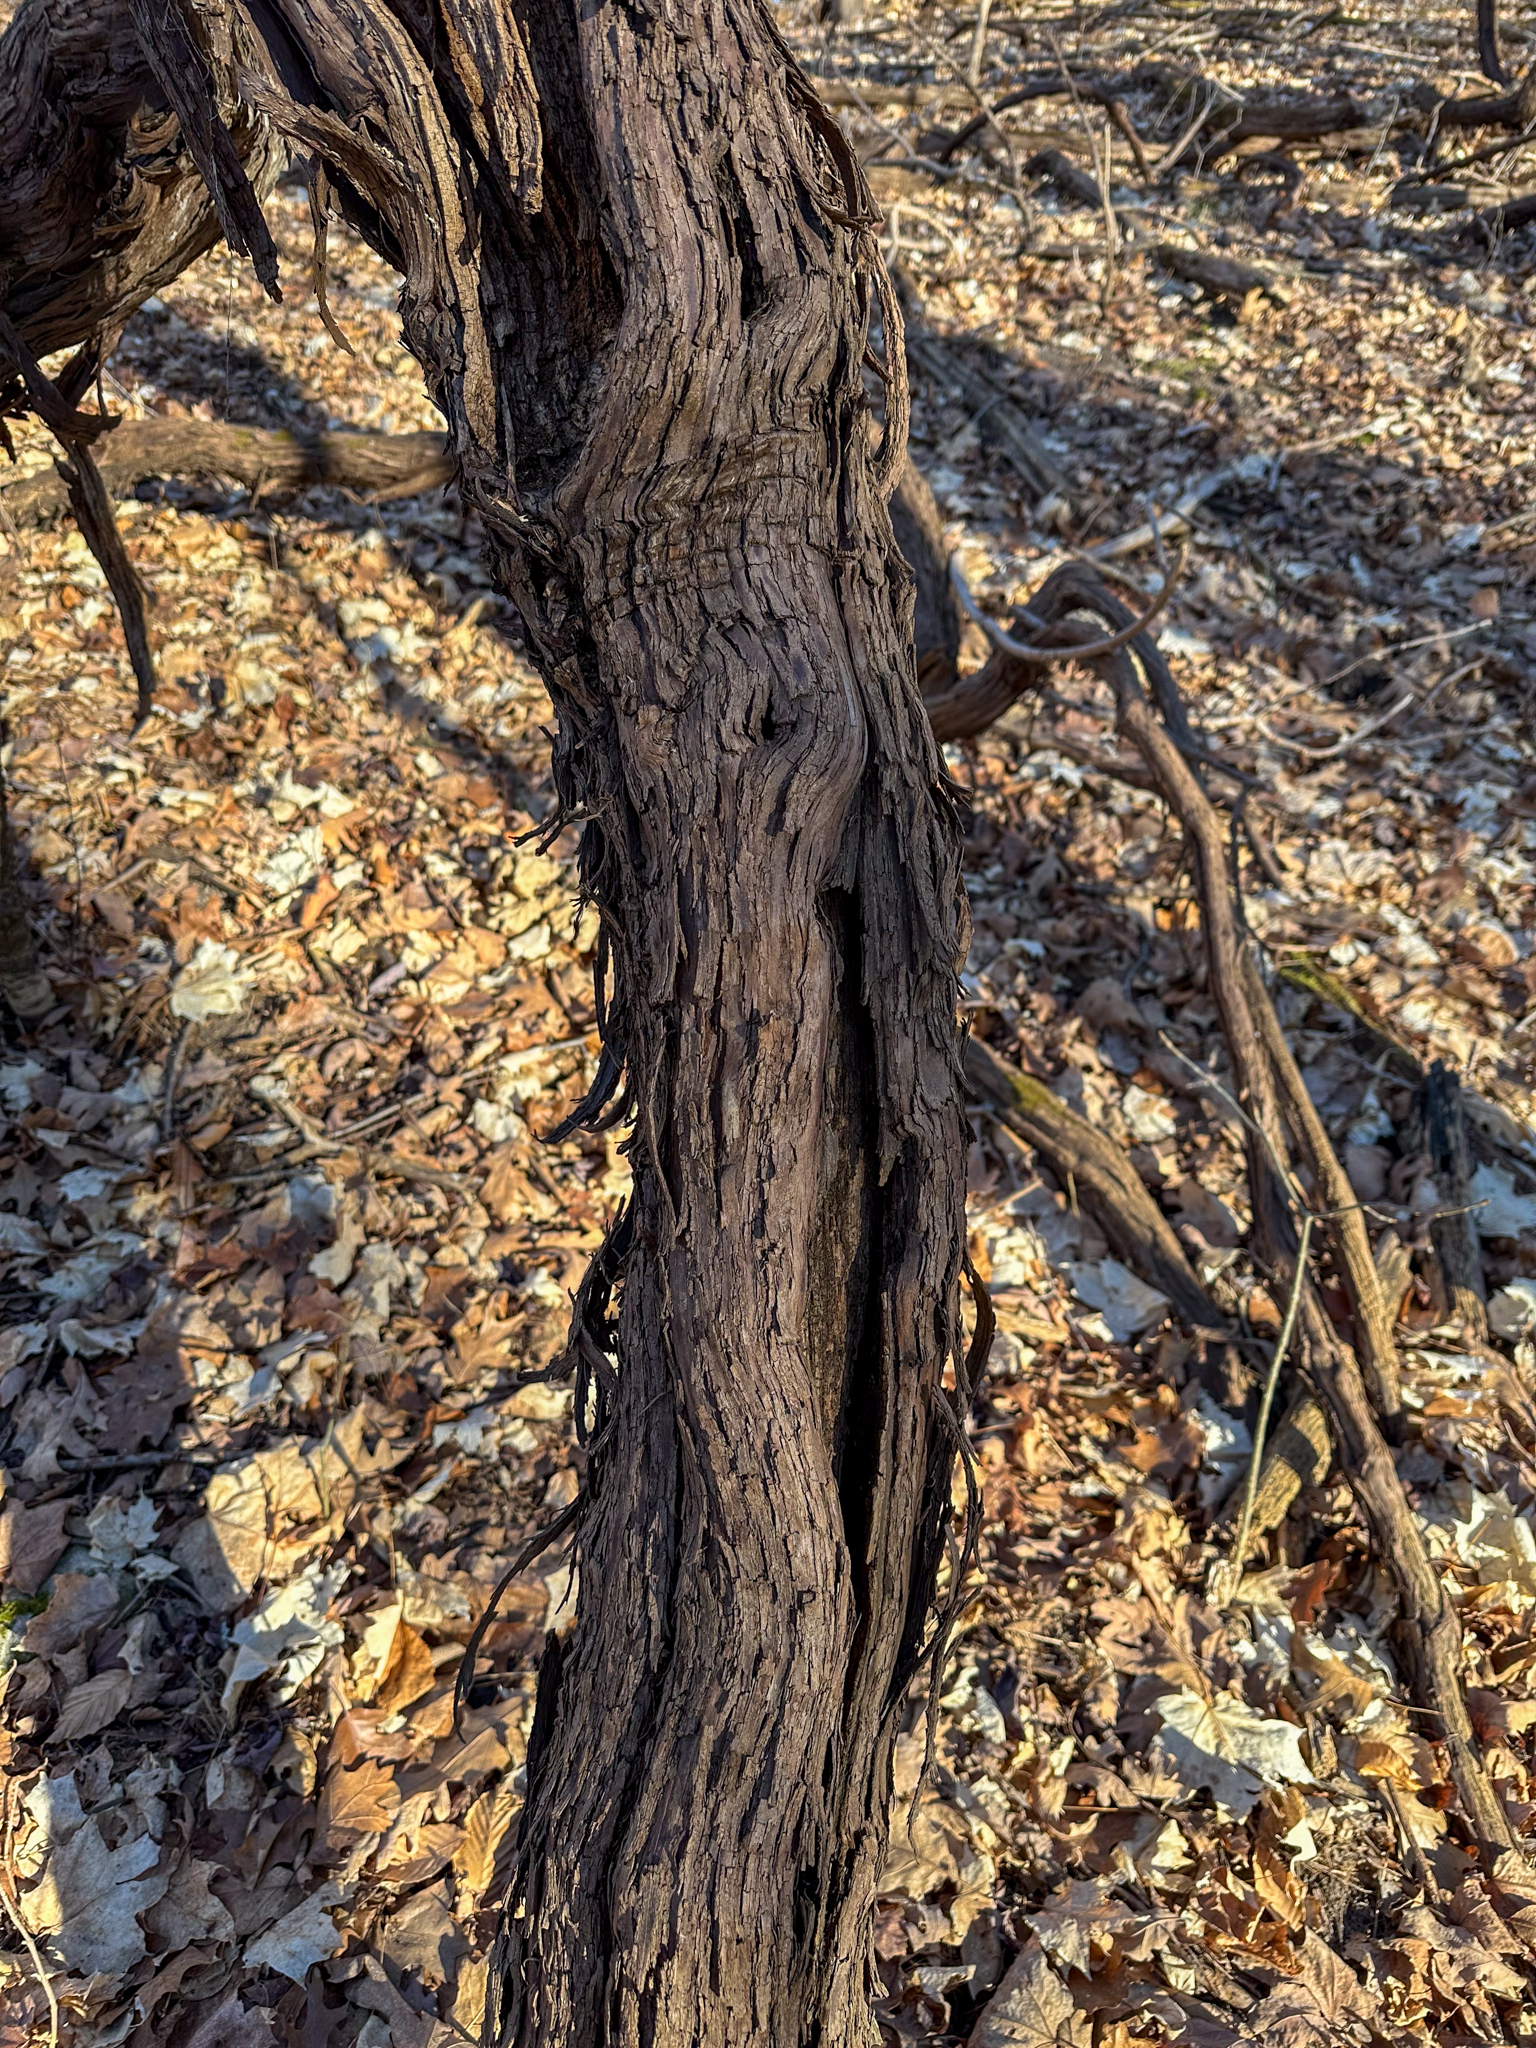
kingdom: Plantae
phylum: Tracheophyta
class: Magnoliopsida
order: Vitales
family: Vitaceae
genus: Vitis
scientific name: Vitis riparia
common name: Frost grape
